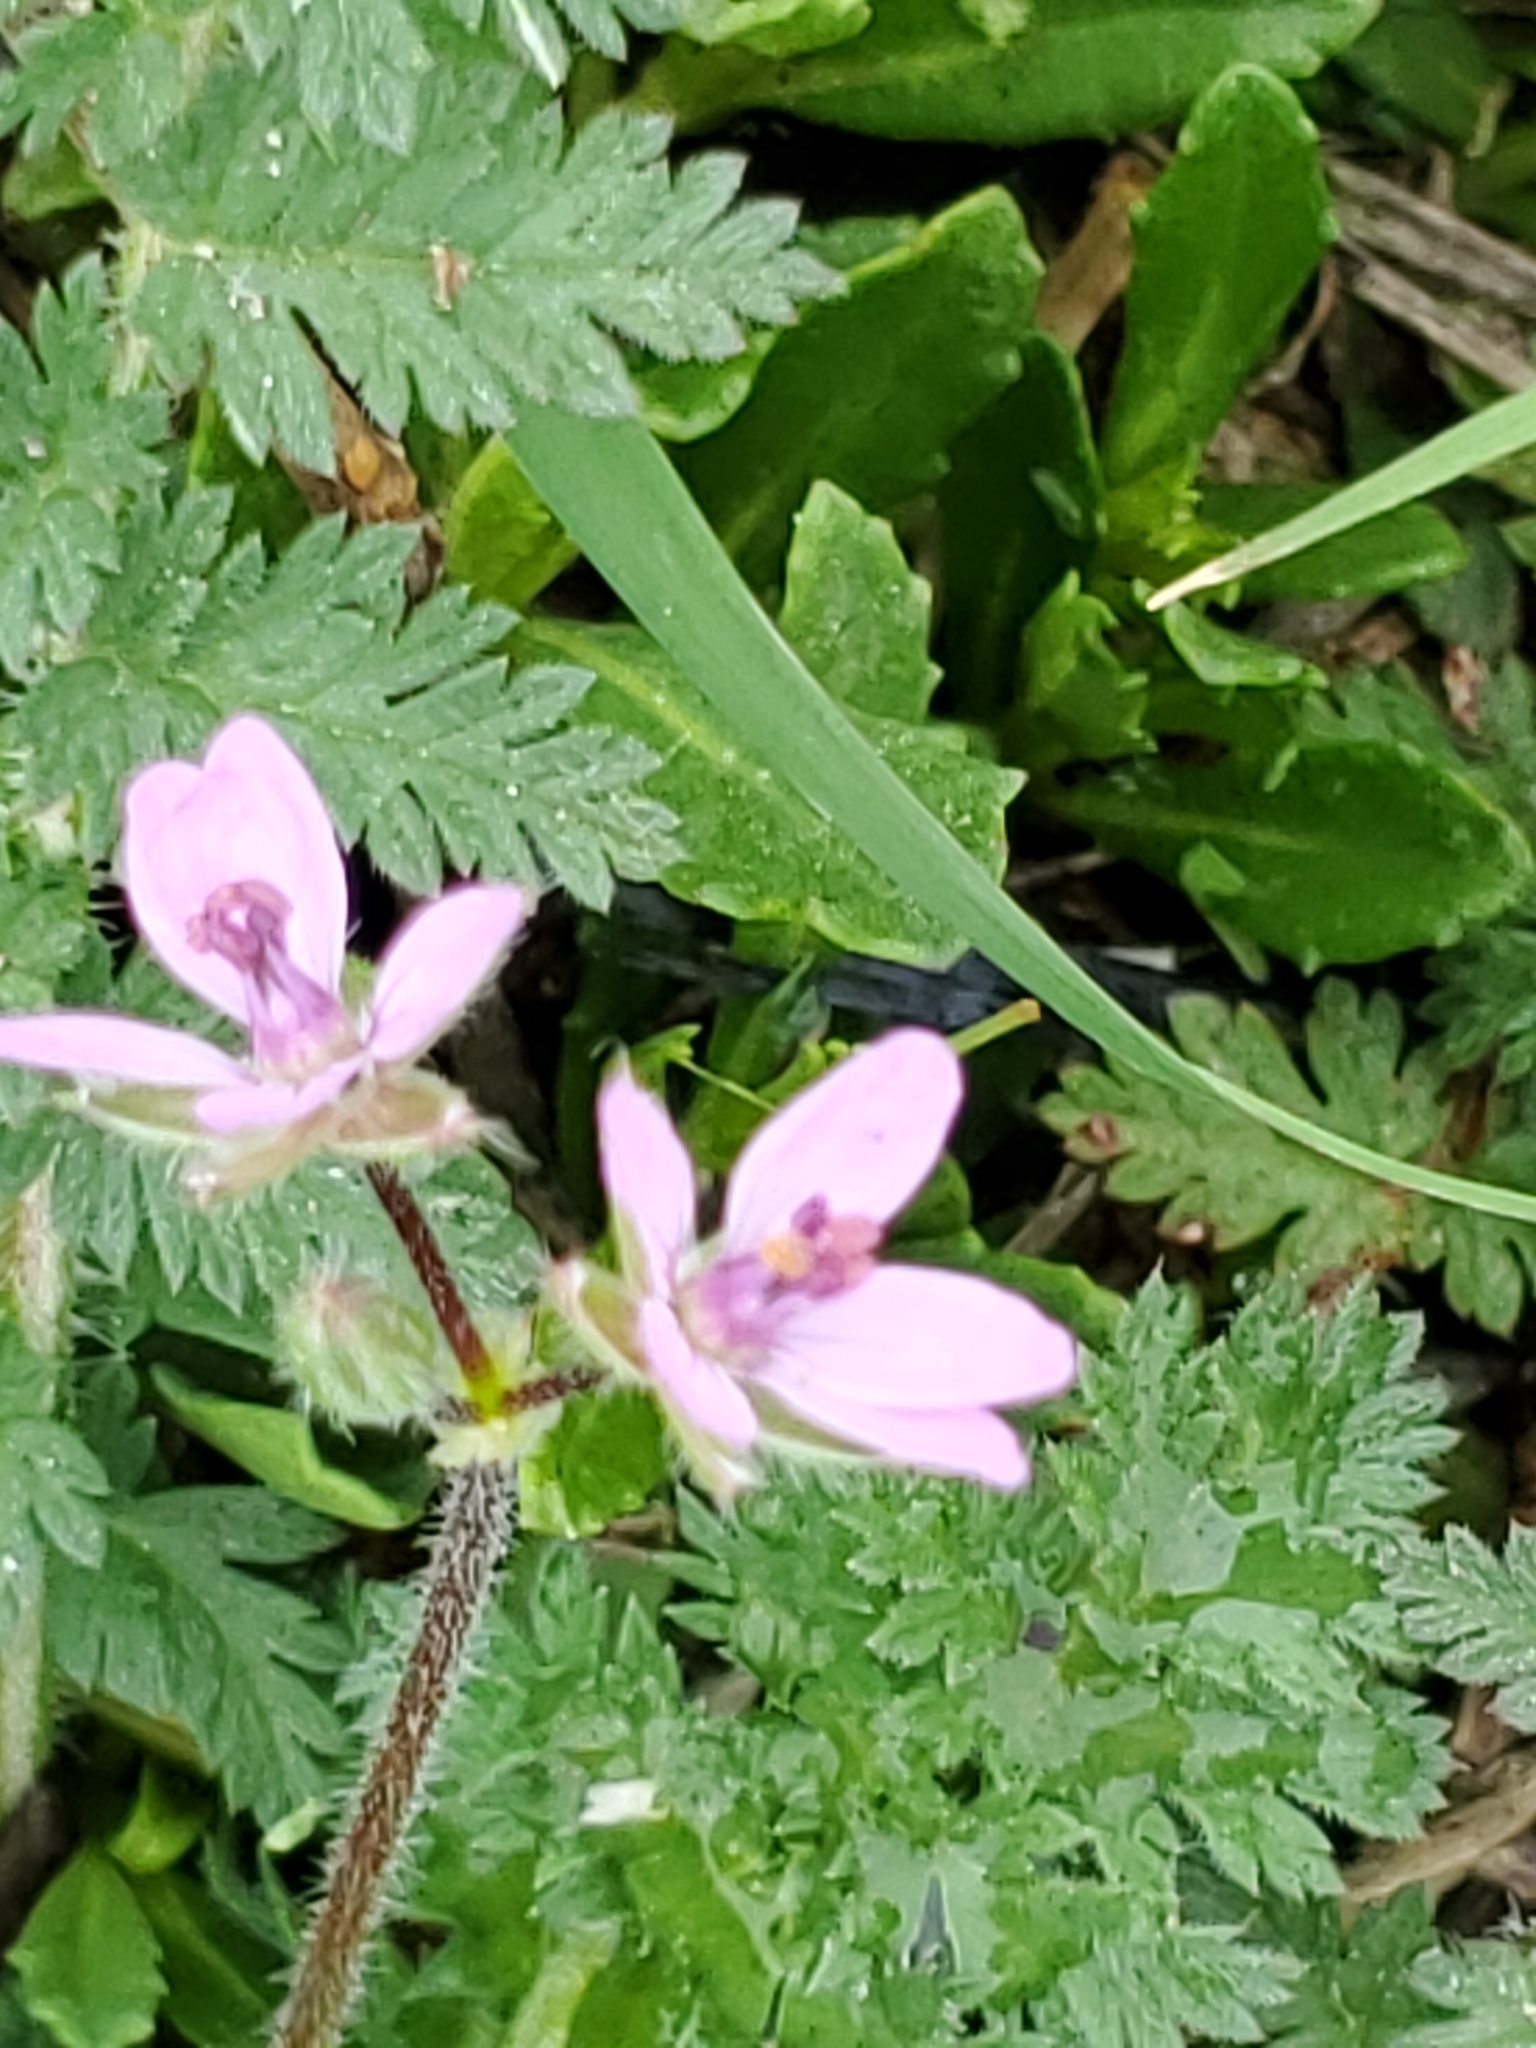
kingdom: Plantae
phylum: Tracheophyta
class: Magnoliopsida
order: Geraniales
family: Geraniaceae
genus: Erodium
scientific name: Erodium cicutarium
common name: Common stork's-bill
